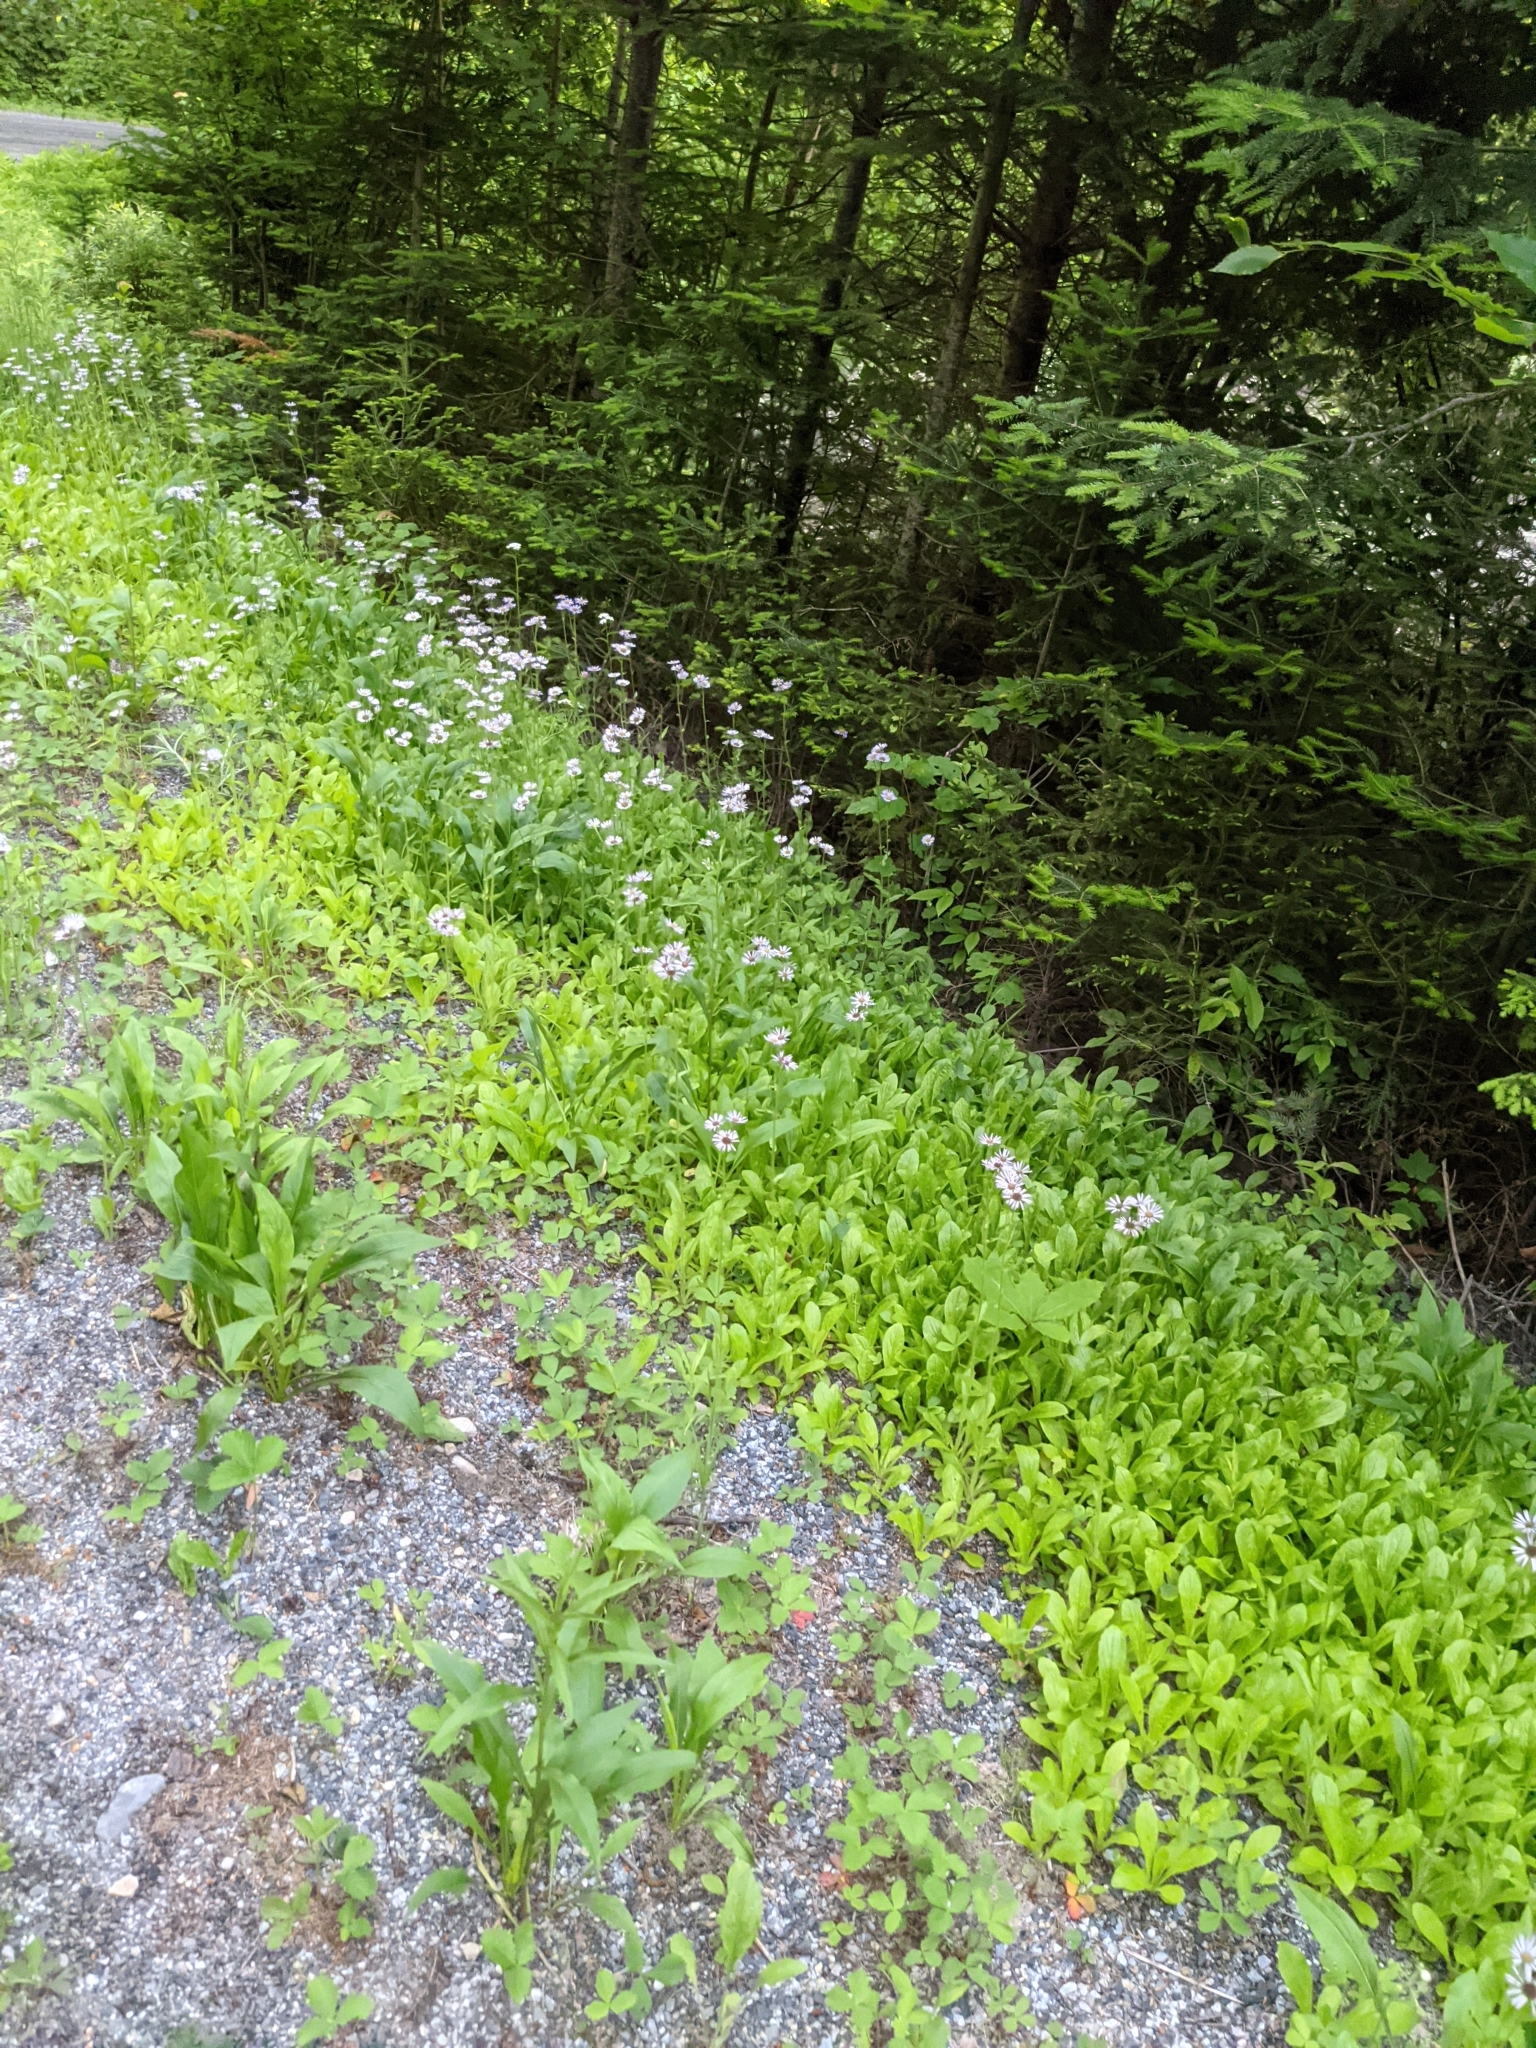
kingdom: Plantae
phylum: Tracheophyta
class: Magnoliopsida
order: Asterales
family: Asteraceae
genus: Erigeron
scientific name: Erigeron pulchellus
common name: Hairy fleabane
